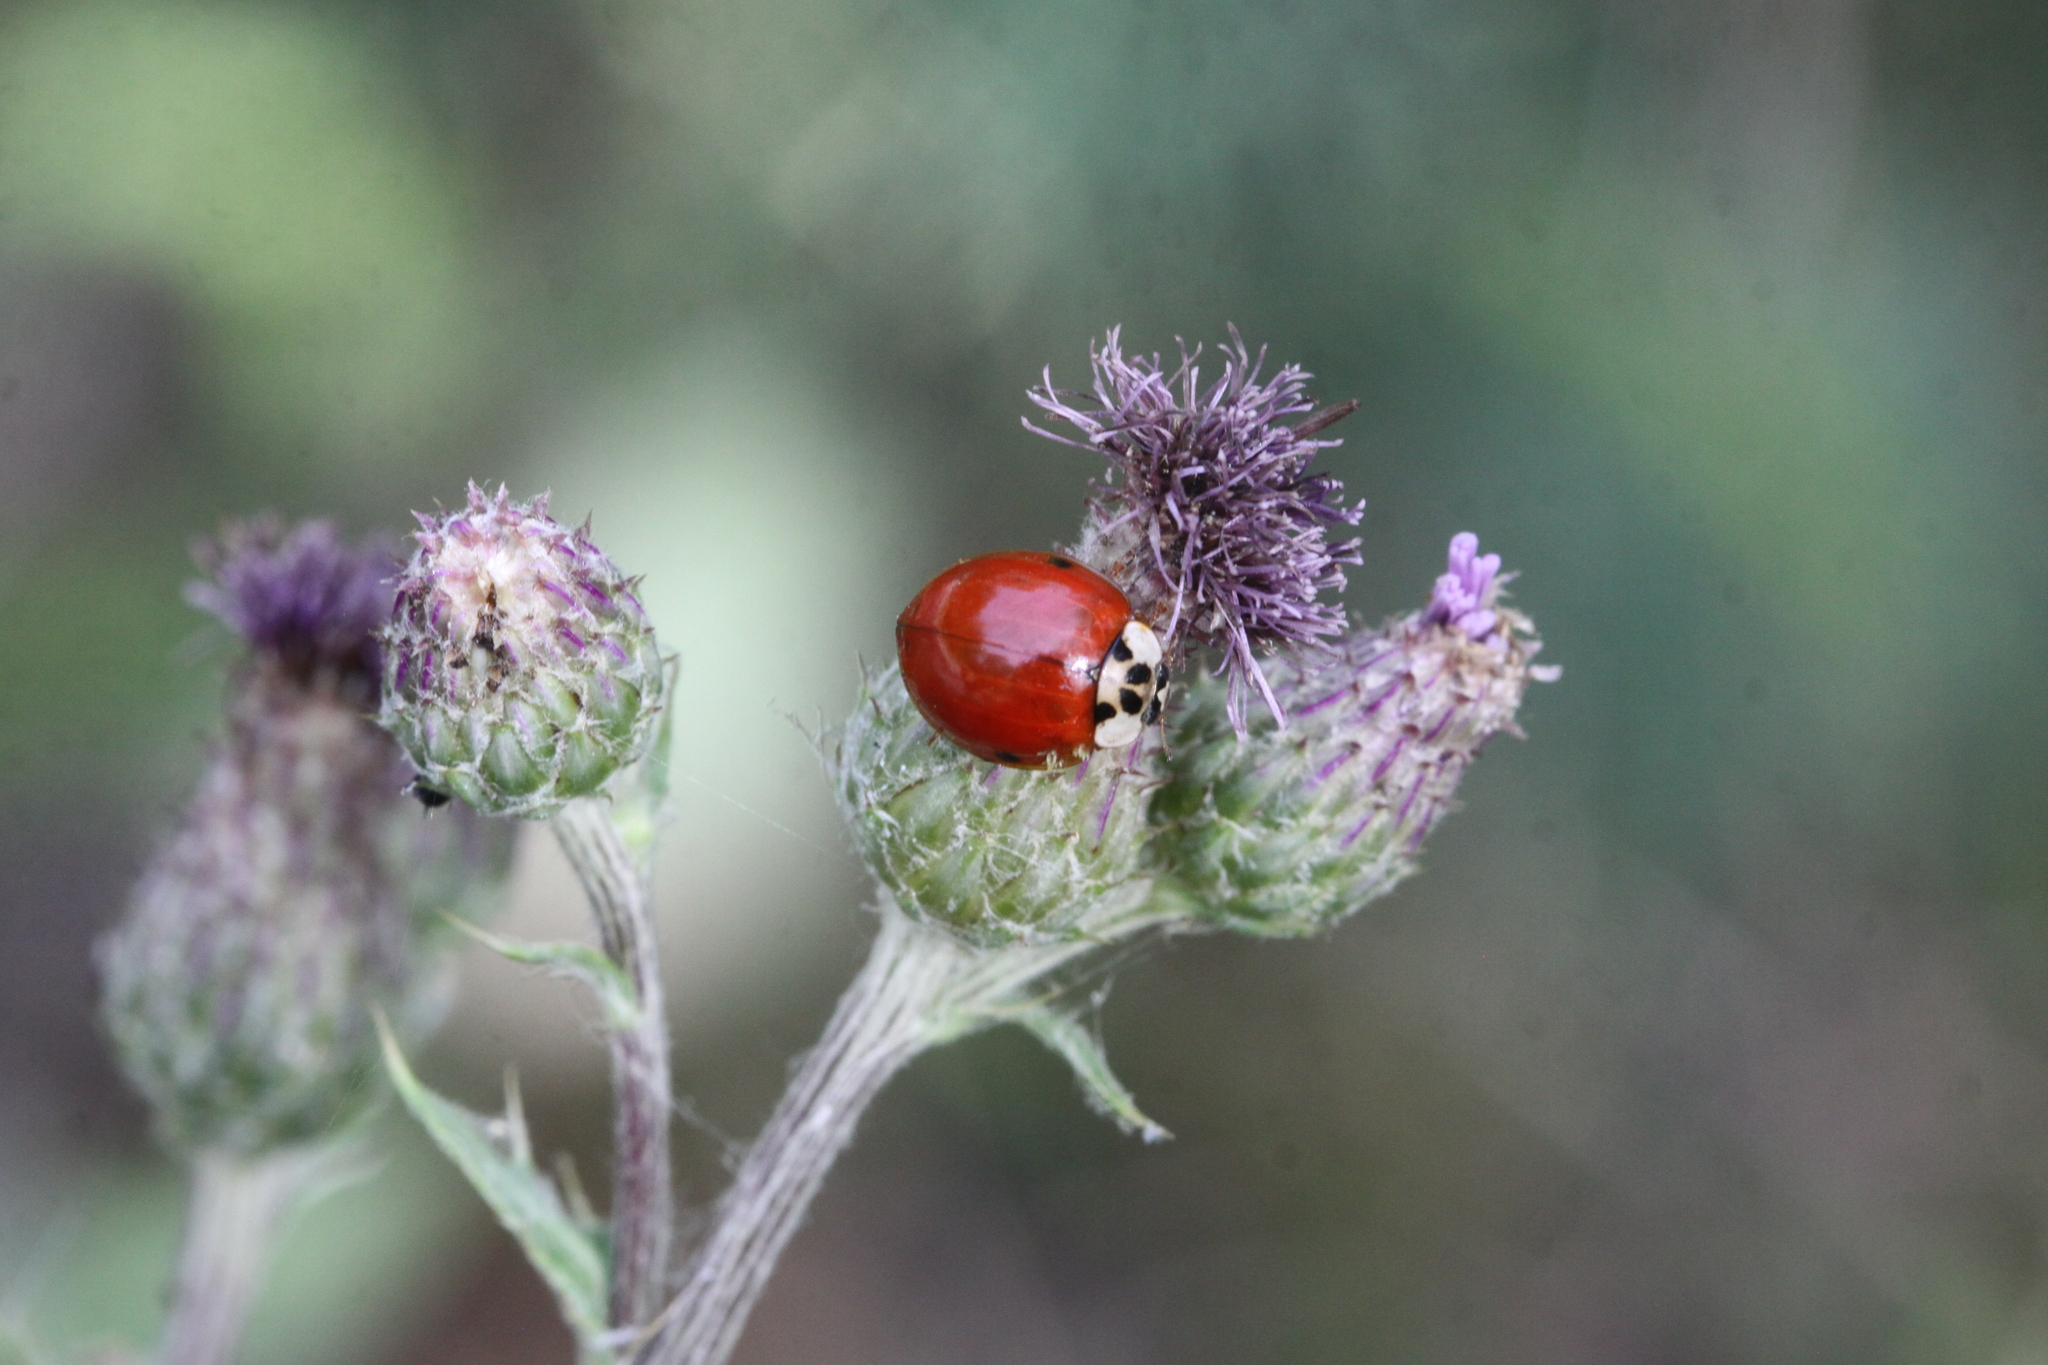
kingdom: Fungi
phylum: Ascomycota
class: Laboulbeniomycetes
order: Laboulbeniales
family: Laboulbeniaceae
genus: Hesperomyces
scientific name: Hesperomyces harmoniae
